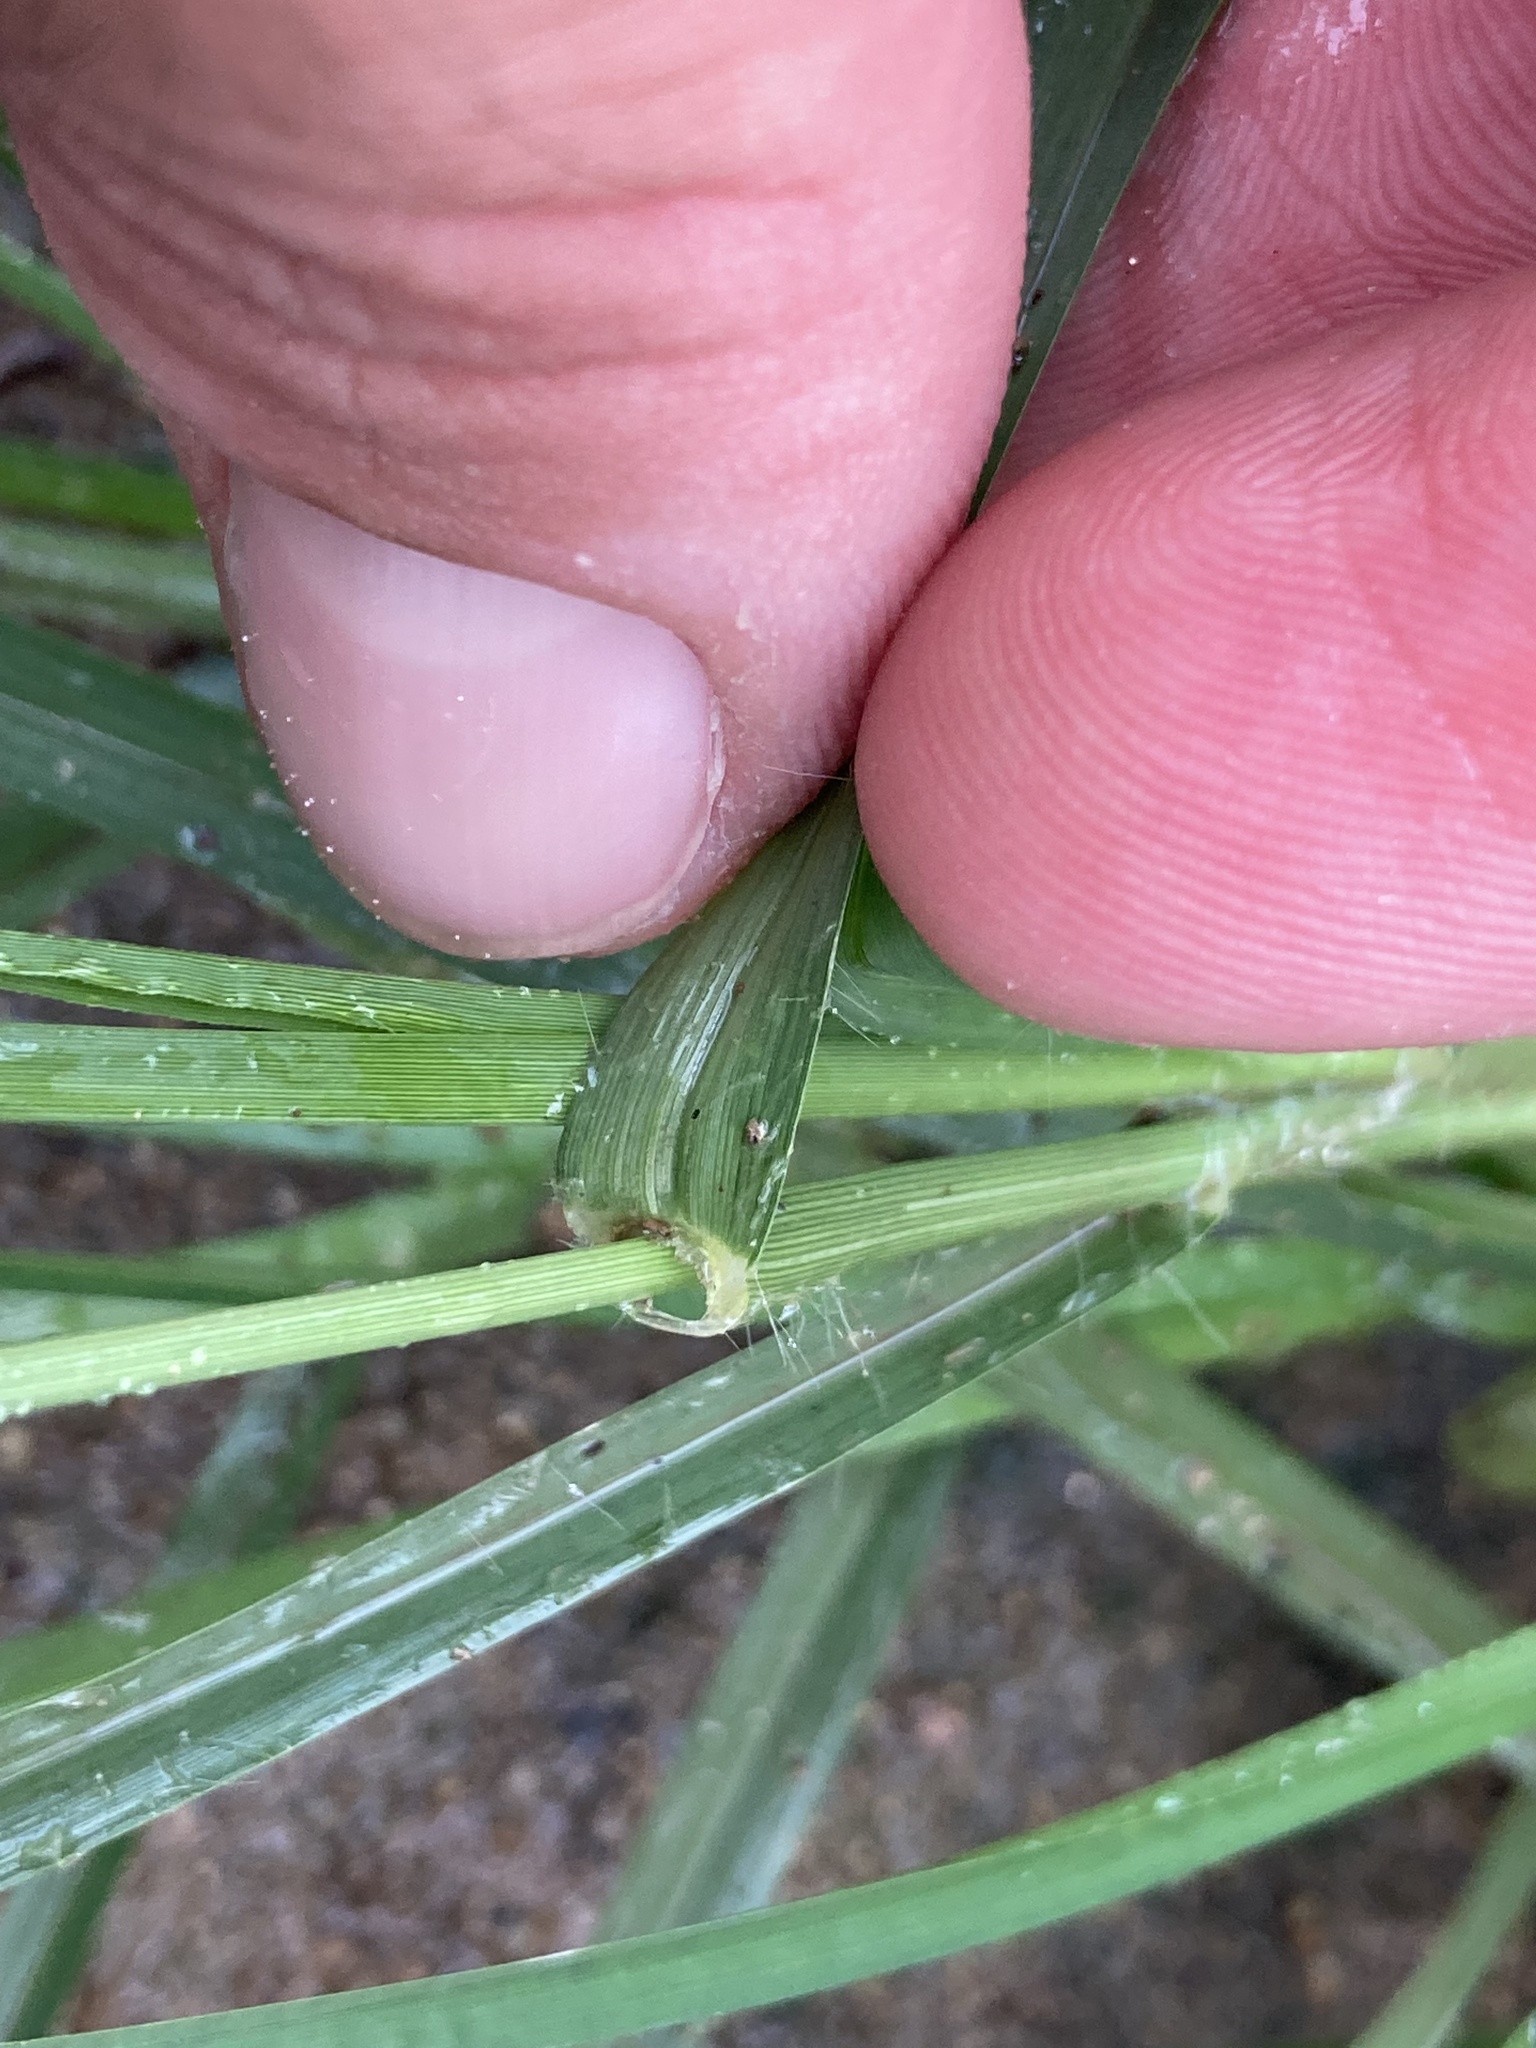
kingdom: Plantae
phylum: Tracheophyta
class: Liliopsida
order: Poales
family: Poaceae
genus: Eleusine
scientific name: Eleusine indica
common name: Yard-grass
